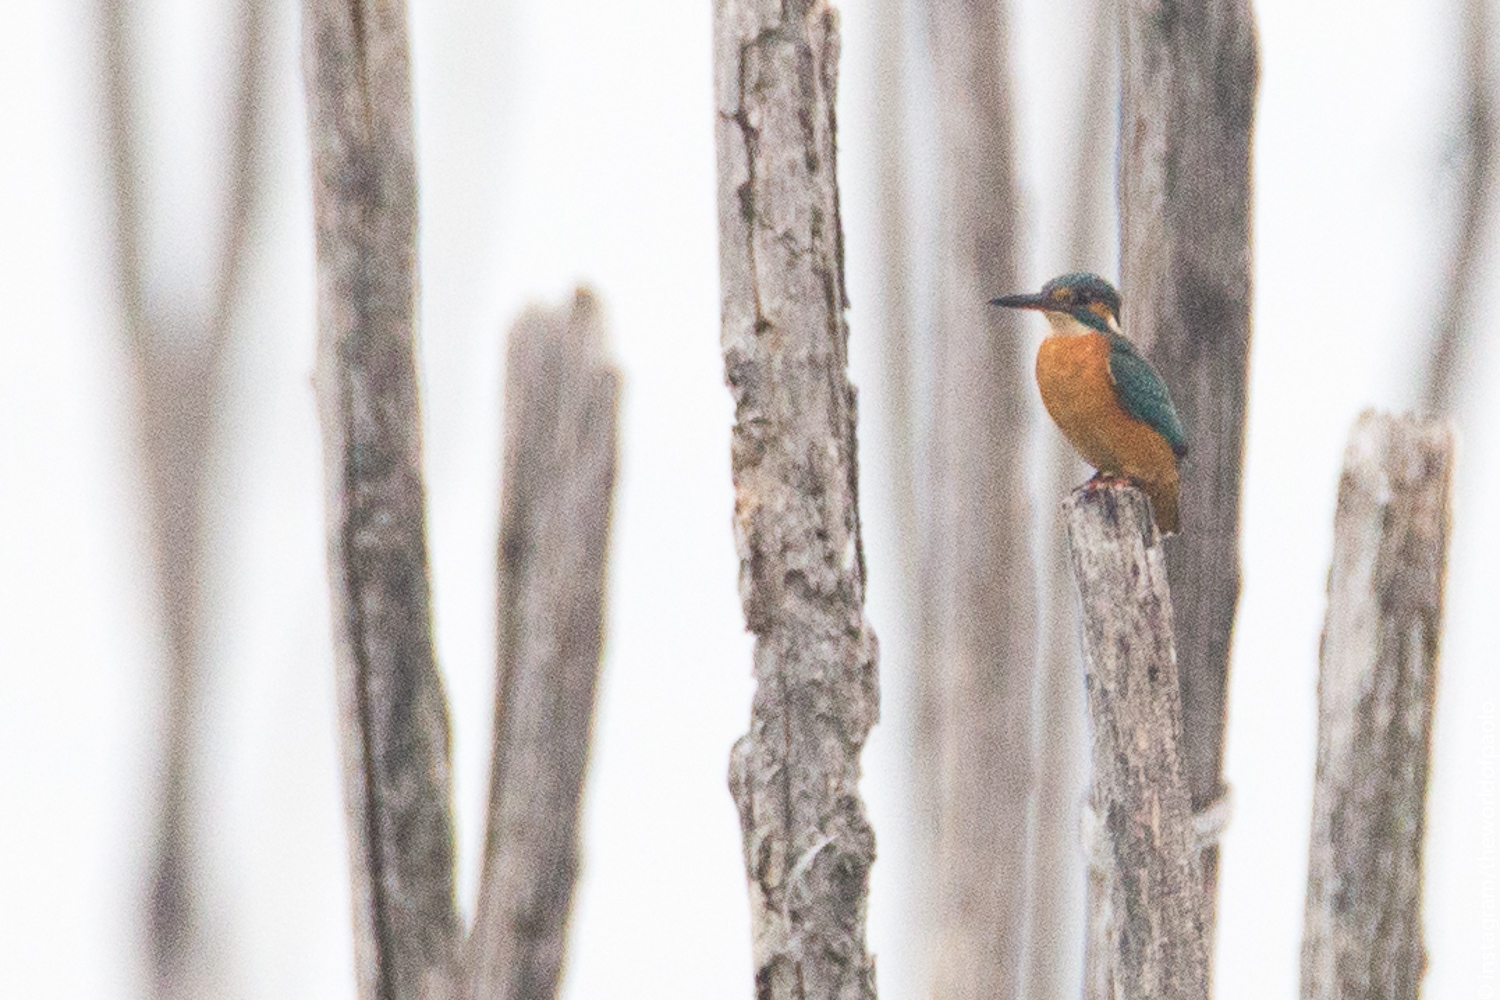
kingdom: Animalia
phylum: Chordata
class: Aves
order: Coraciiformes
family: Alcedinidae
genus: Alcedo
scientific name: Alcedo atthis
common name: Common kingfisher
